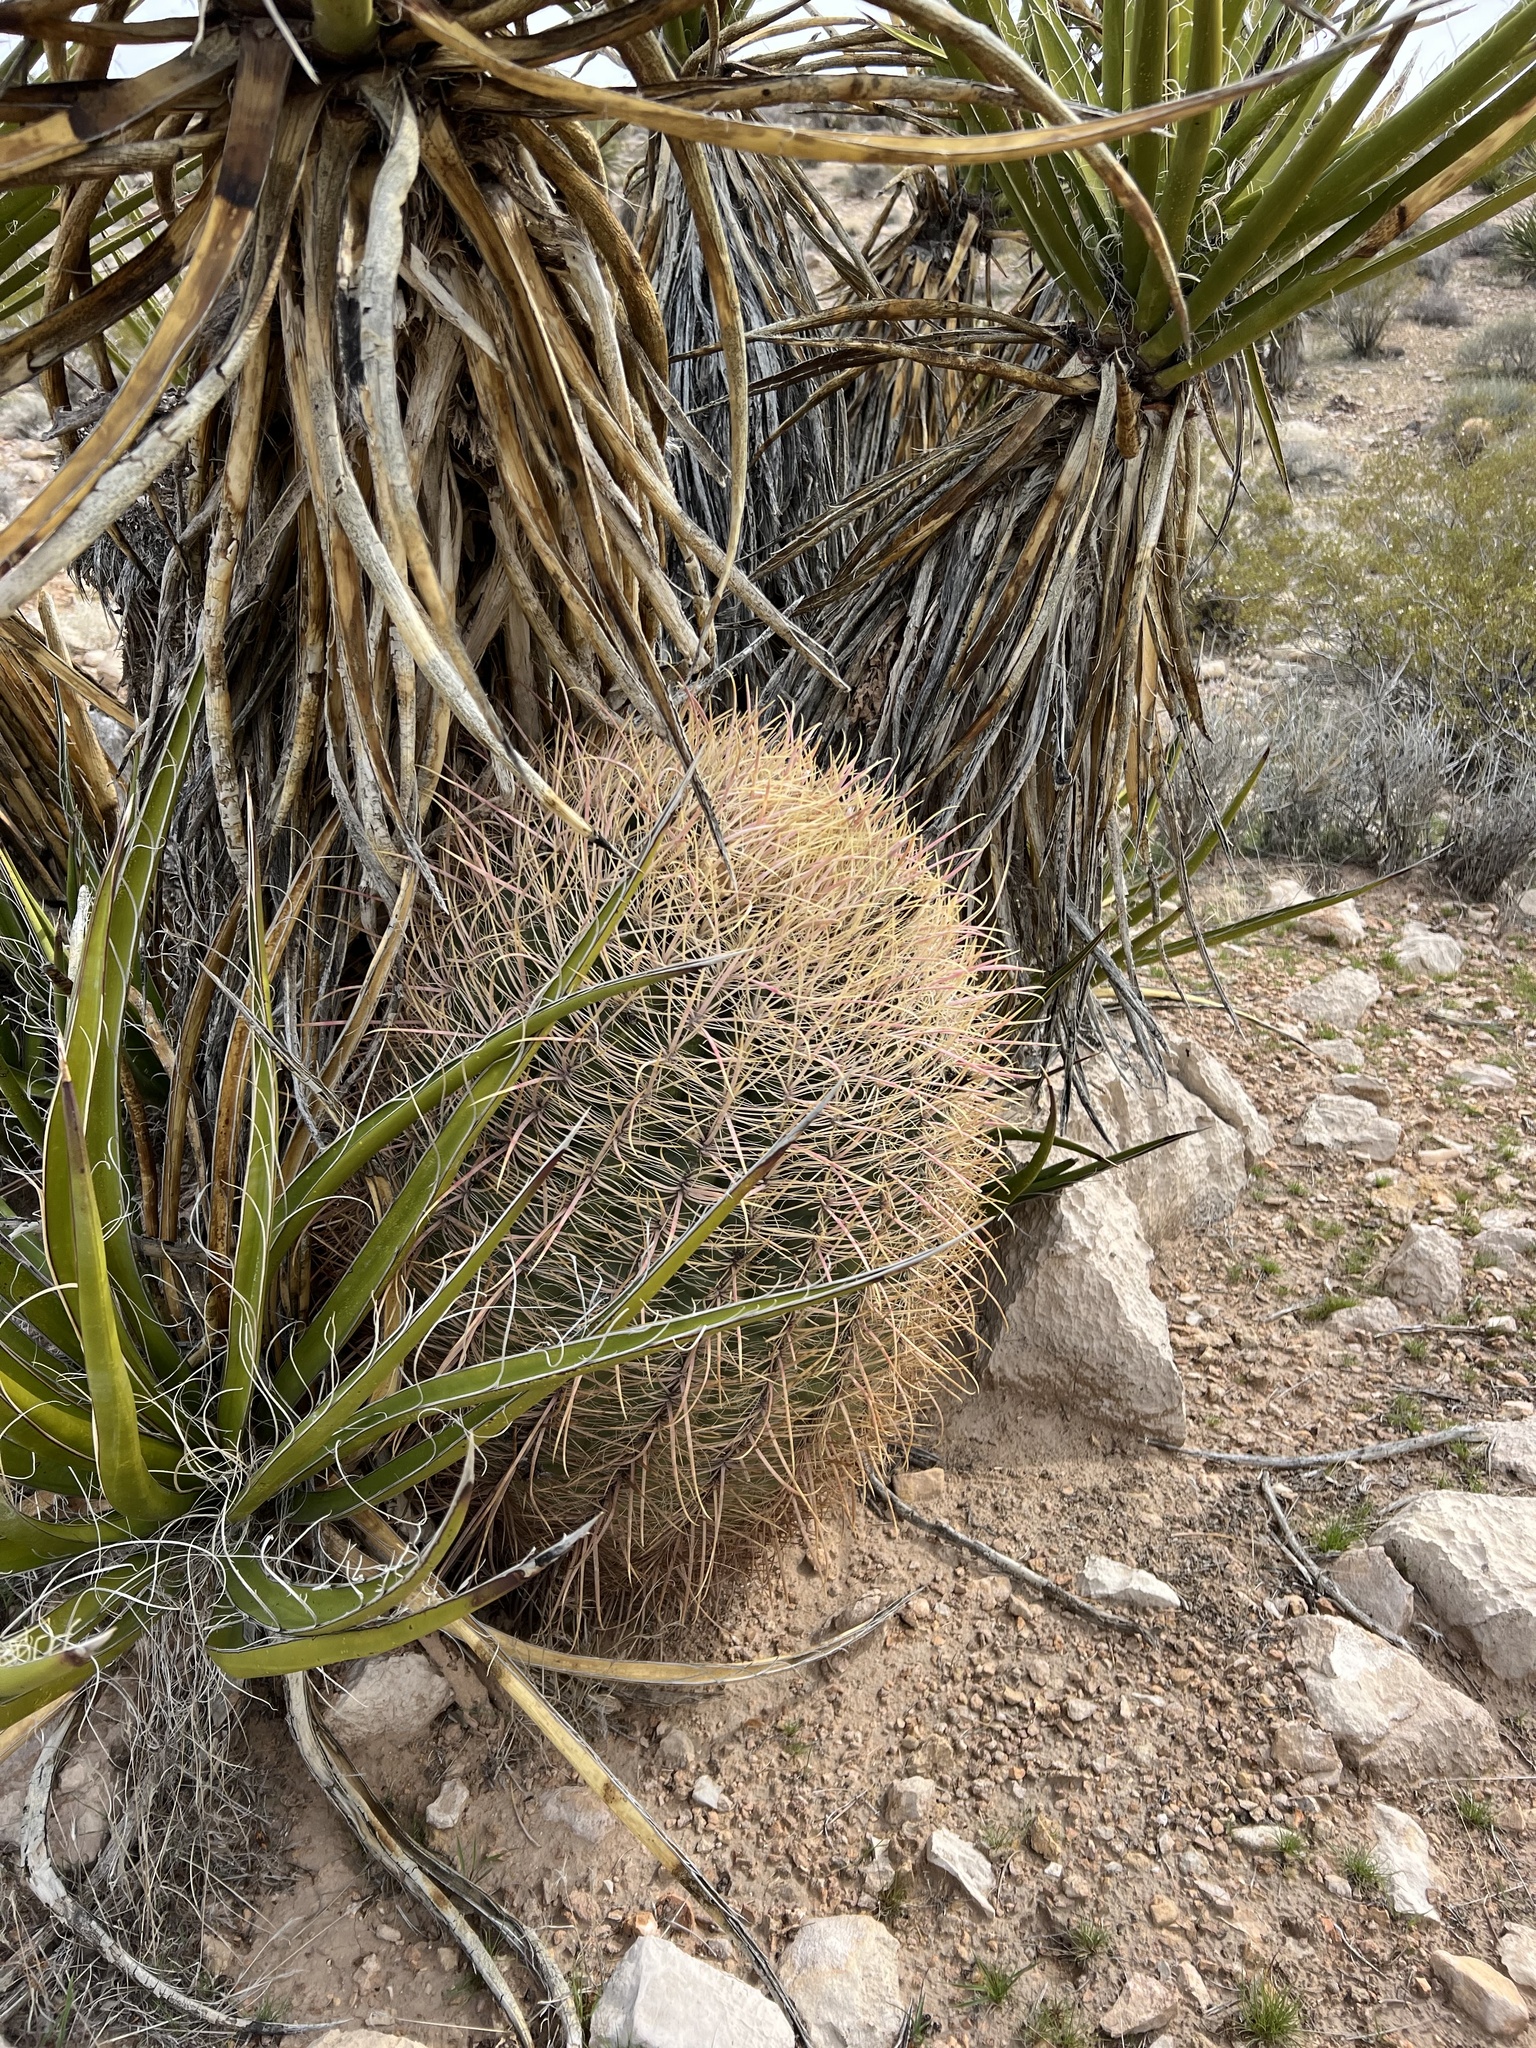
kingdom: Plantae
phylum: Tracheophyta
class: Magnoliopsida
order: Caryophyllales
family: Cactaceae
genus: Ferocactus
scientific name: Ferocactus cylindraceus
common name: California barrel cactus
